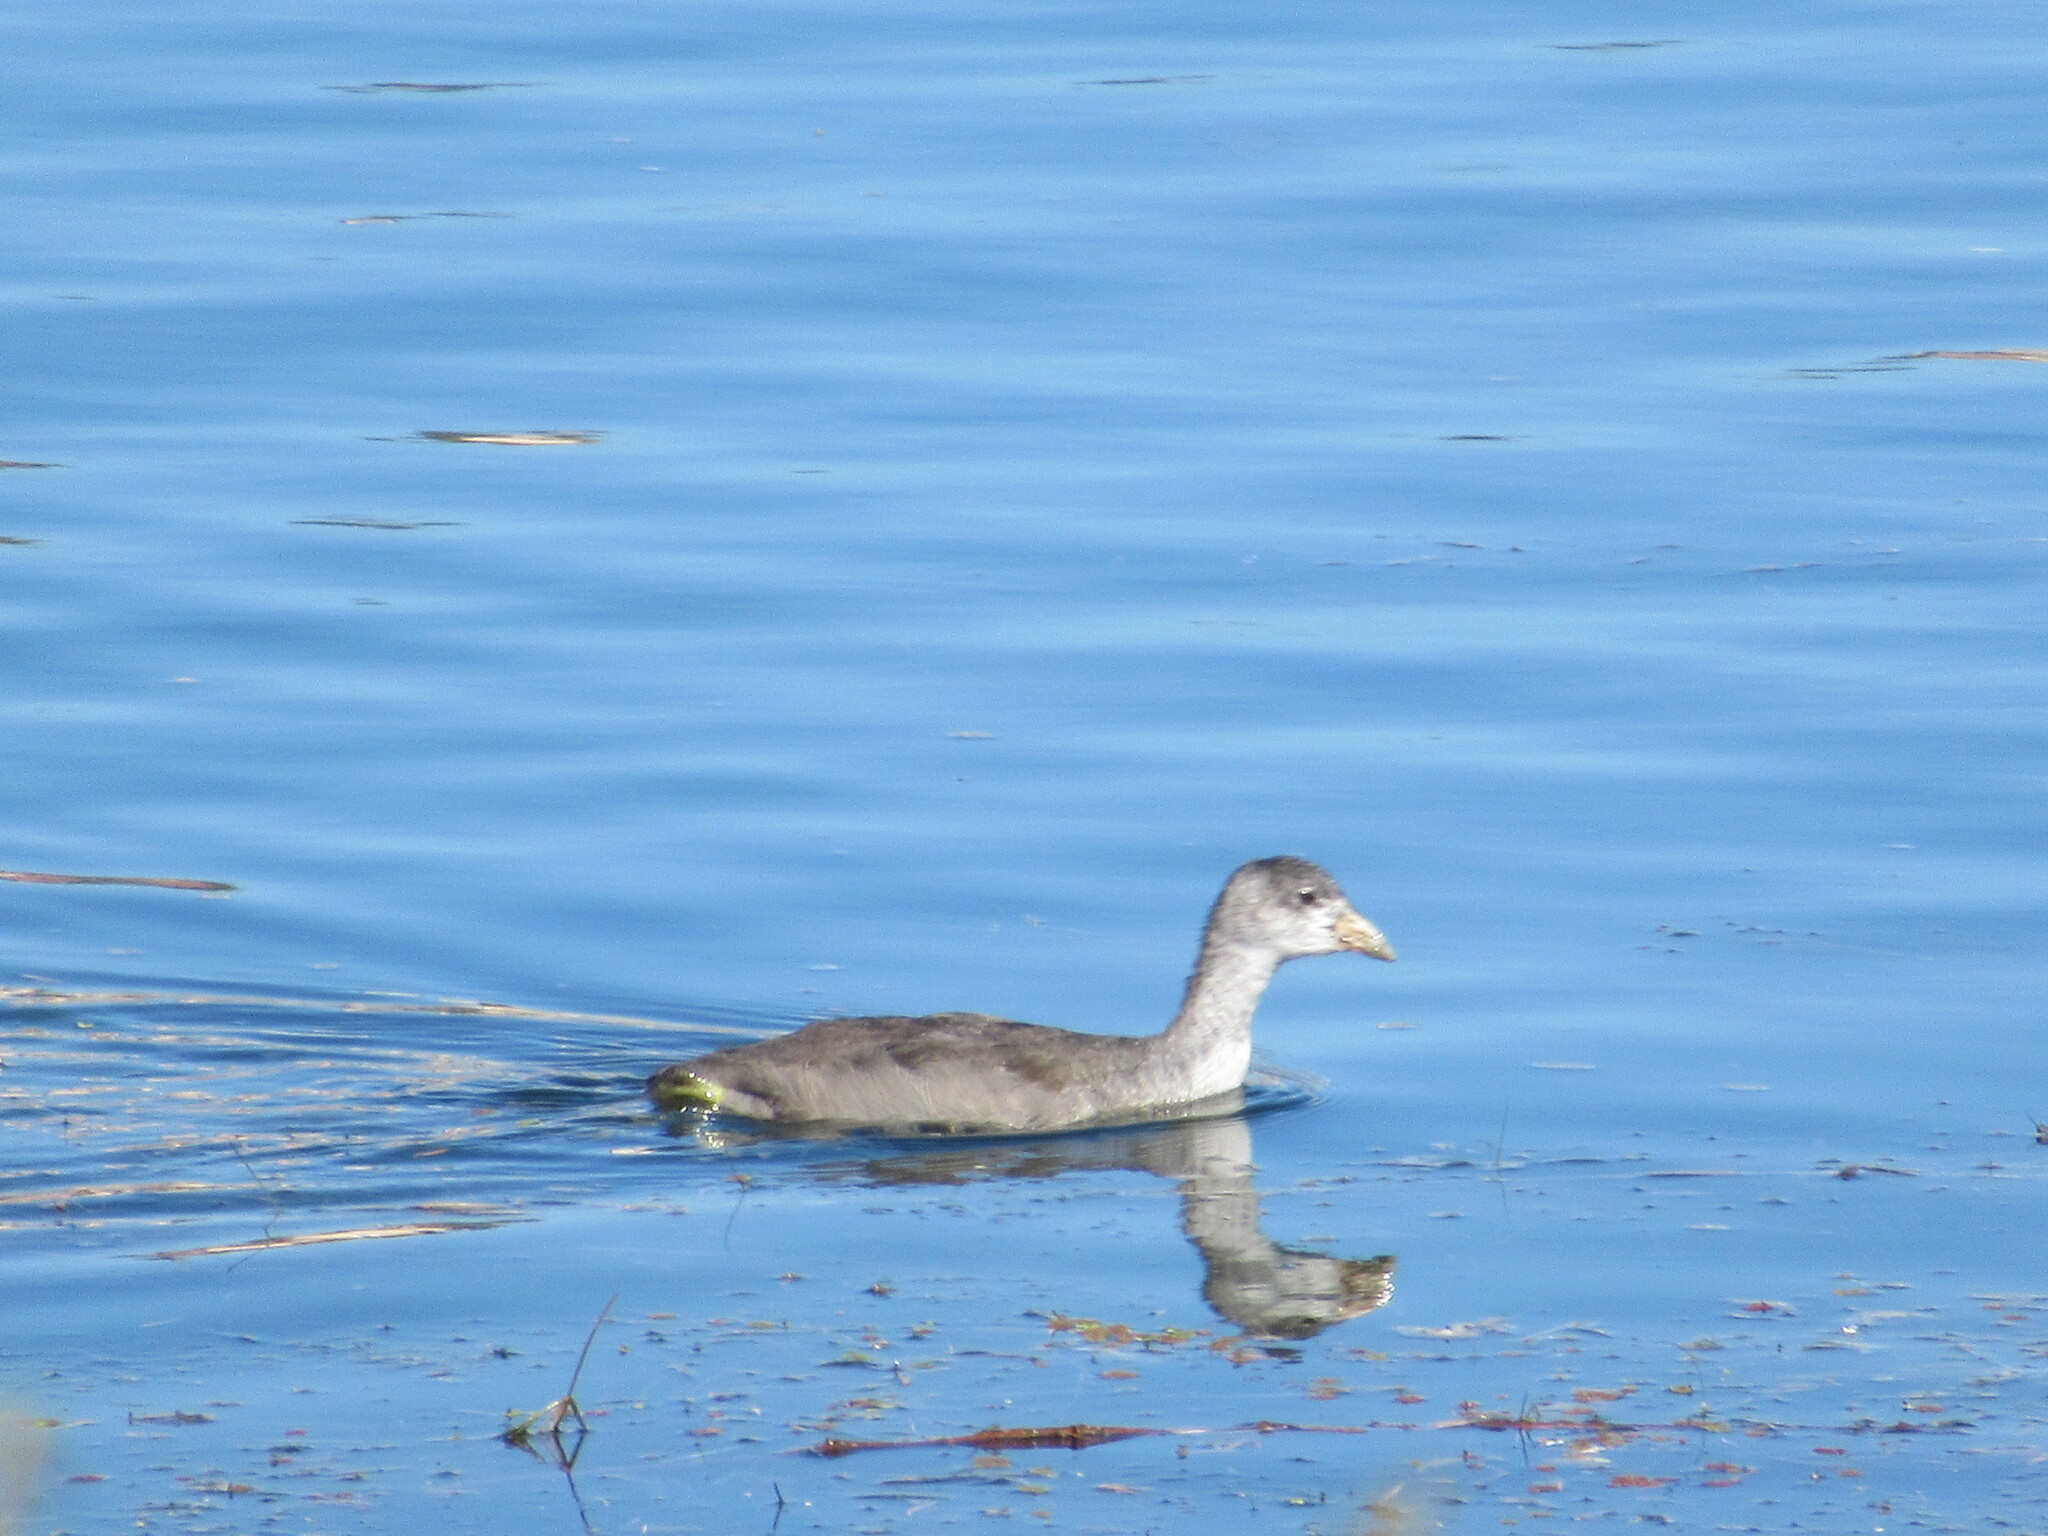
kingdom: Animalia
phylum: Chordata
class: Aves
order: Gruiformes
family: Rallidae
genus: Fulica
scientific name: Fulica americana
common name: American coot
